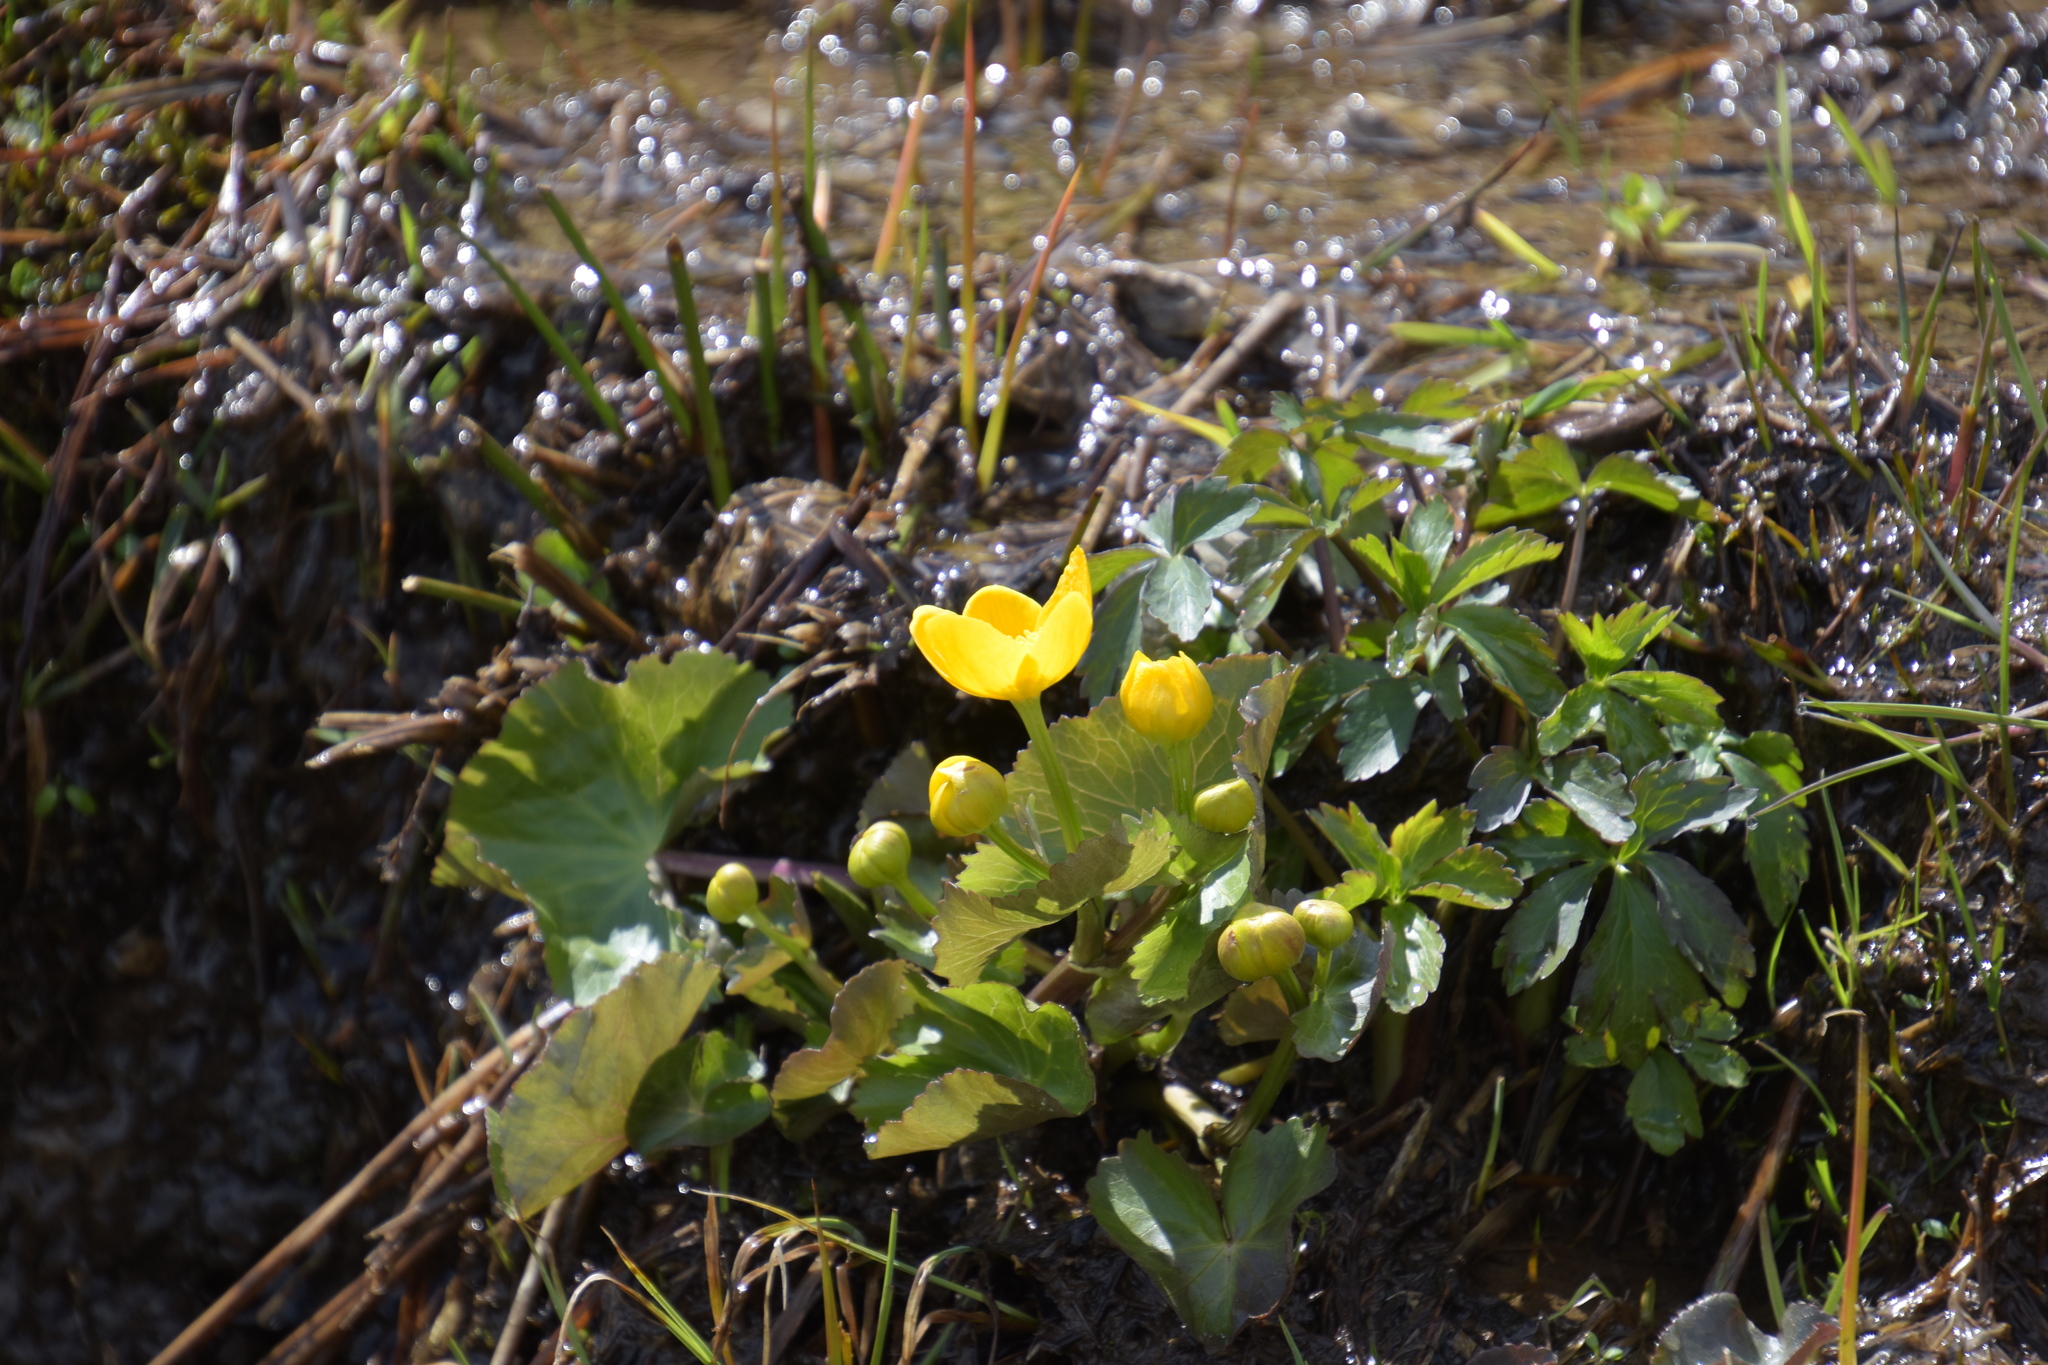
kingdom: Plantae
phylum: Tracheophyta
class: Magnoliopsida
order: Ranunculales
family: Ranunculaceae
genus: Caltha
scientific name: Caltha palustris
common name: Marsh marigold
